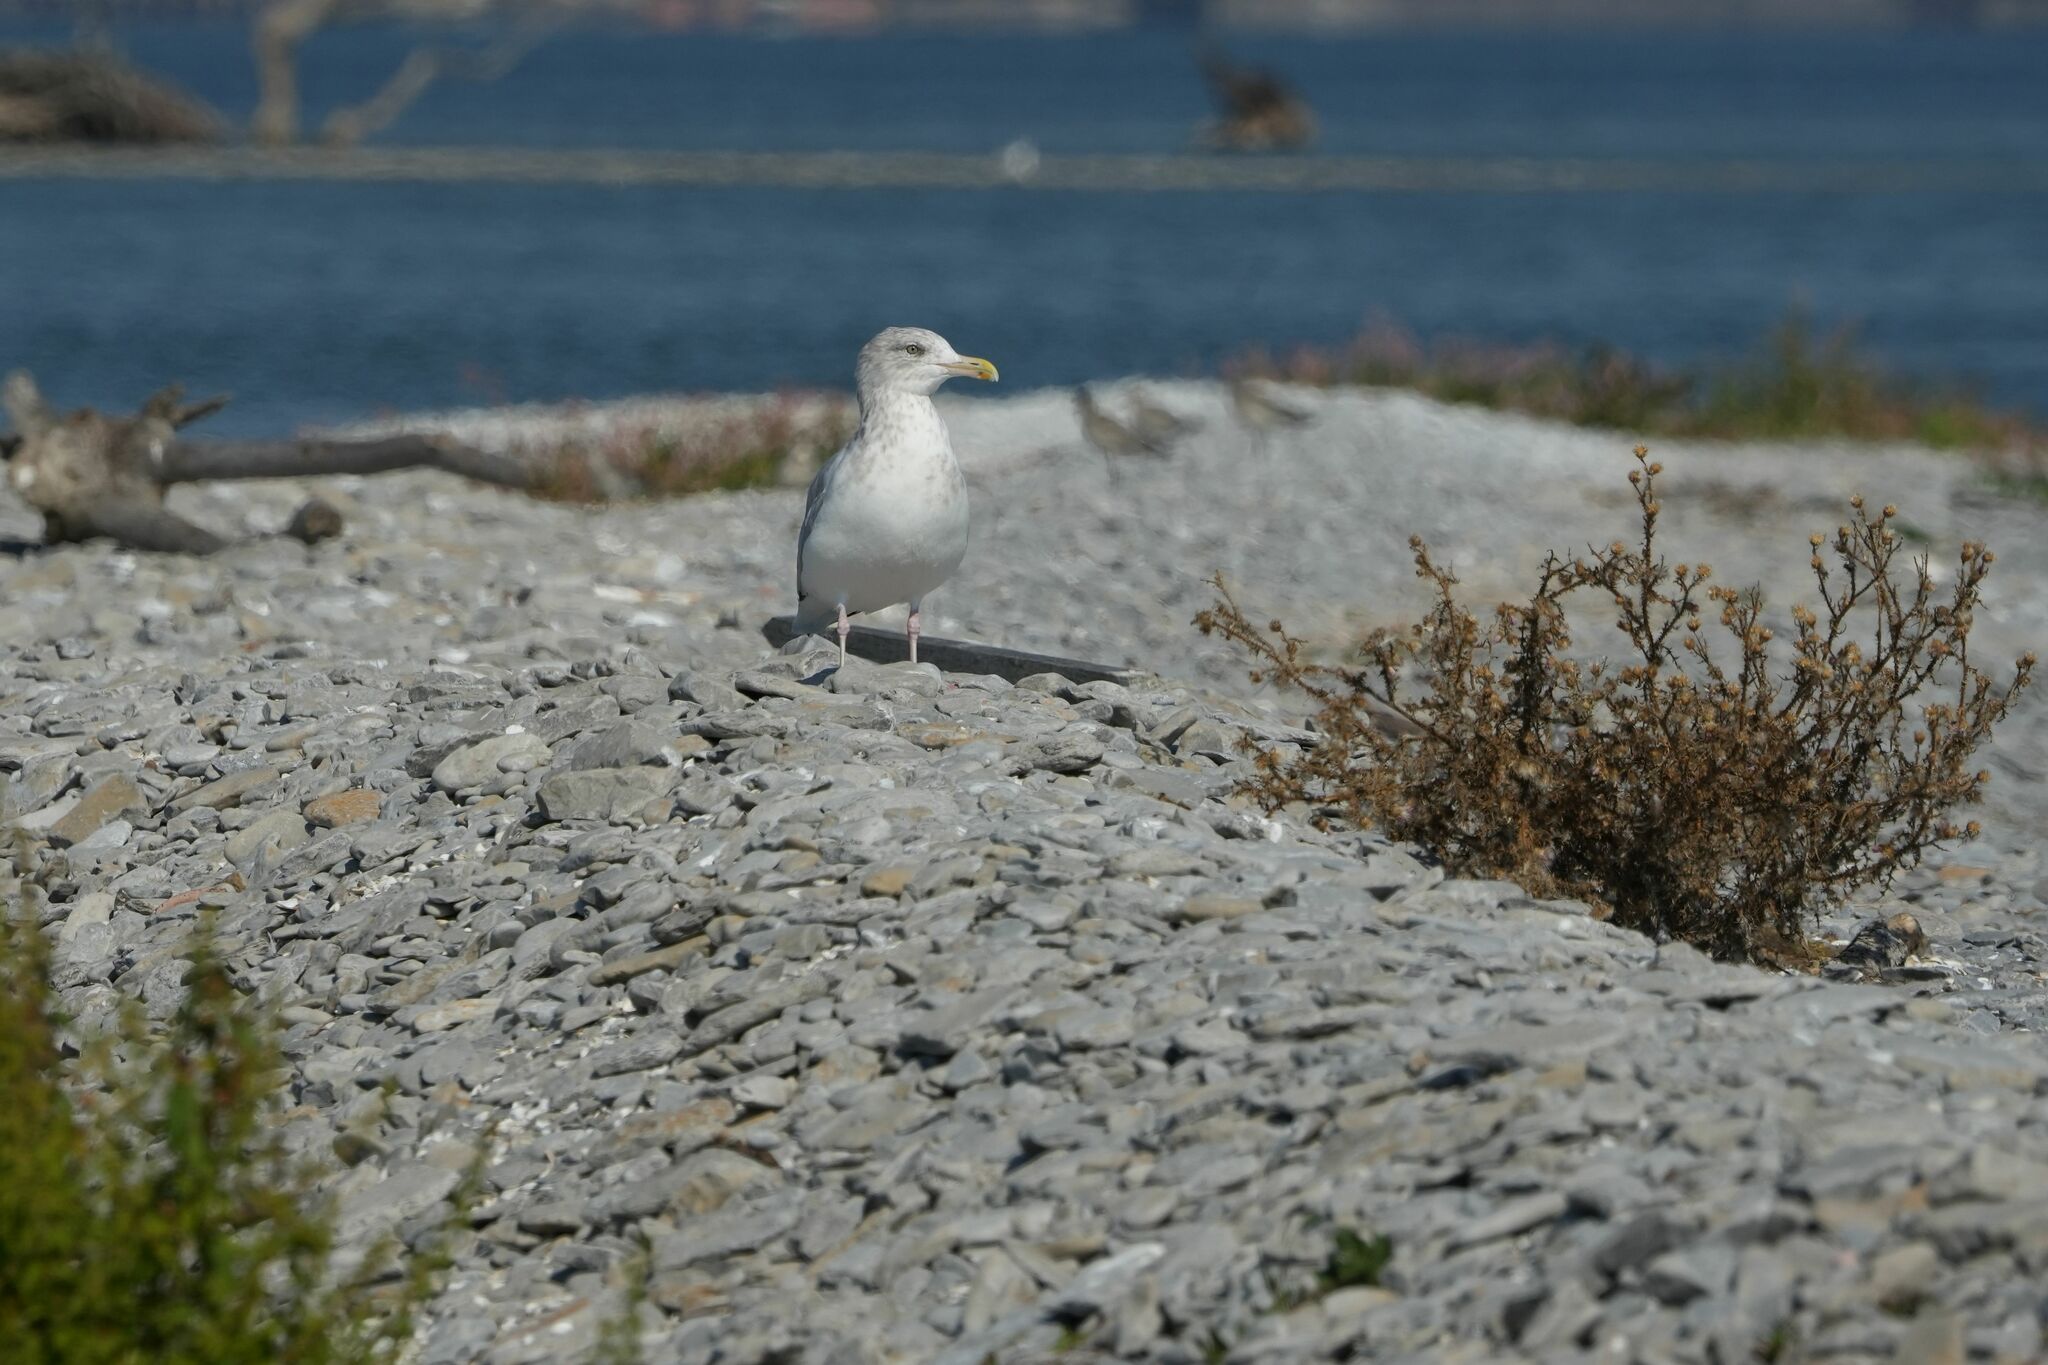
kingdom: Animalia
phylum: Chordata
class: Aves
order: Charadriiformes
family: Laridae
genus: Larus
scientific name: Larus argentatus
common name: Herring gull
